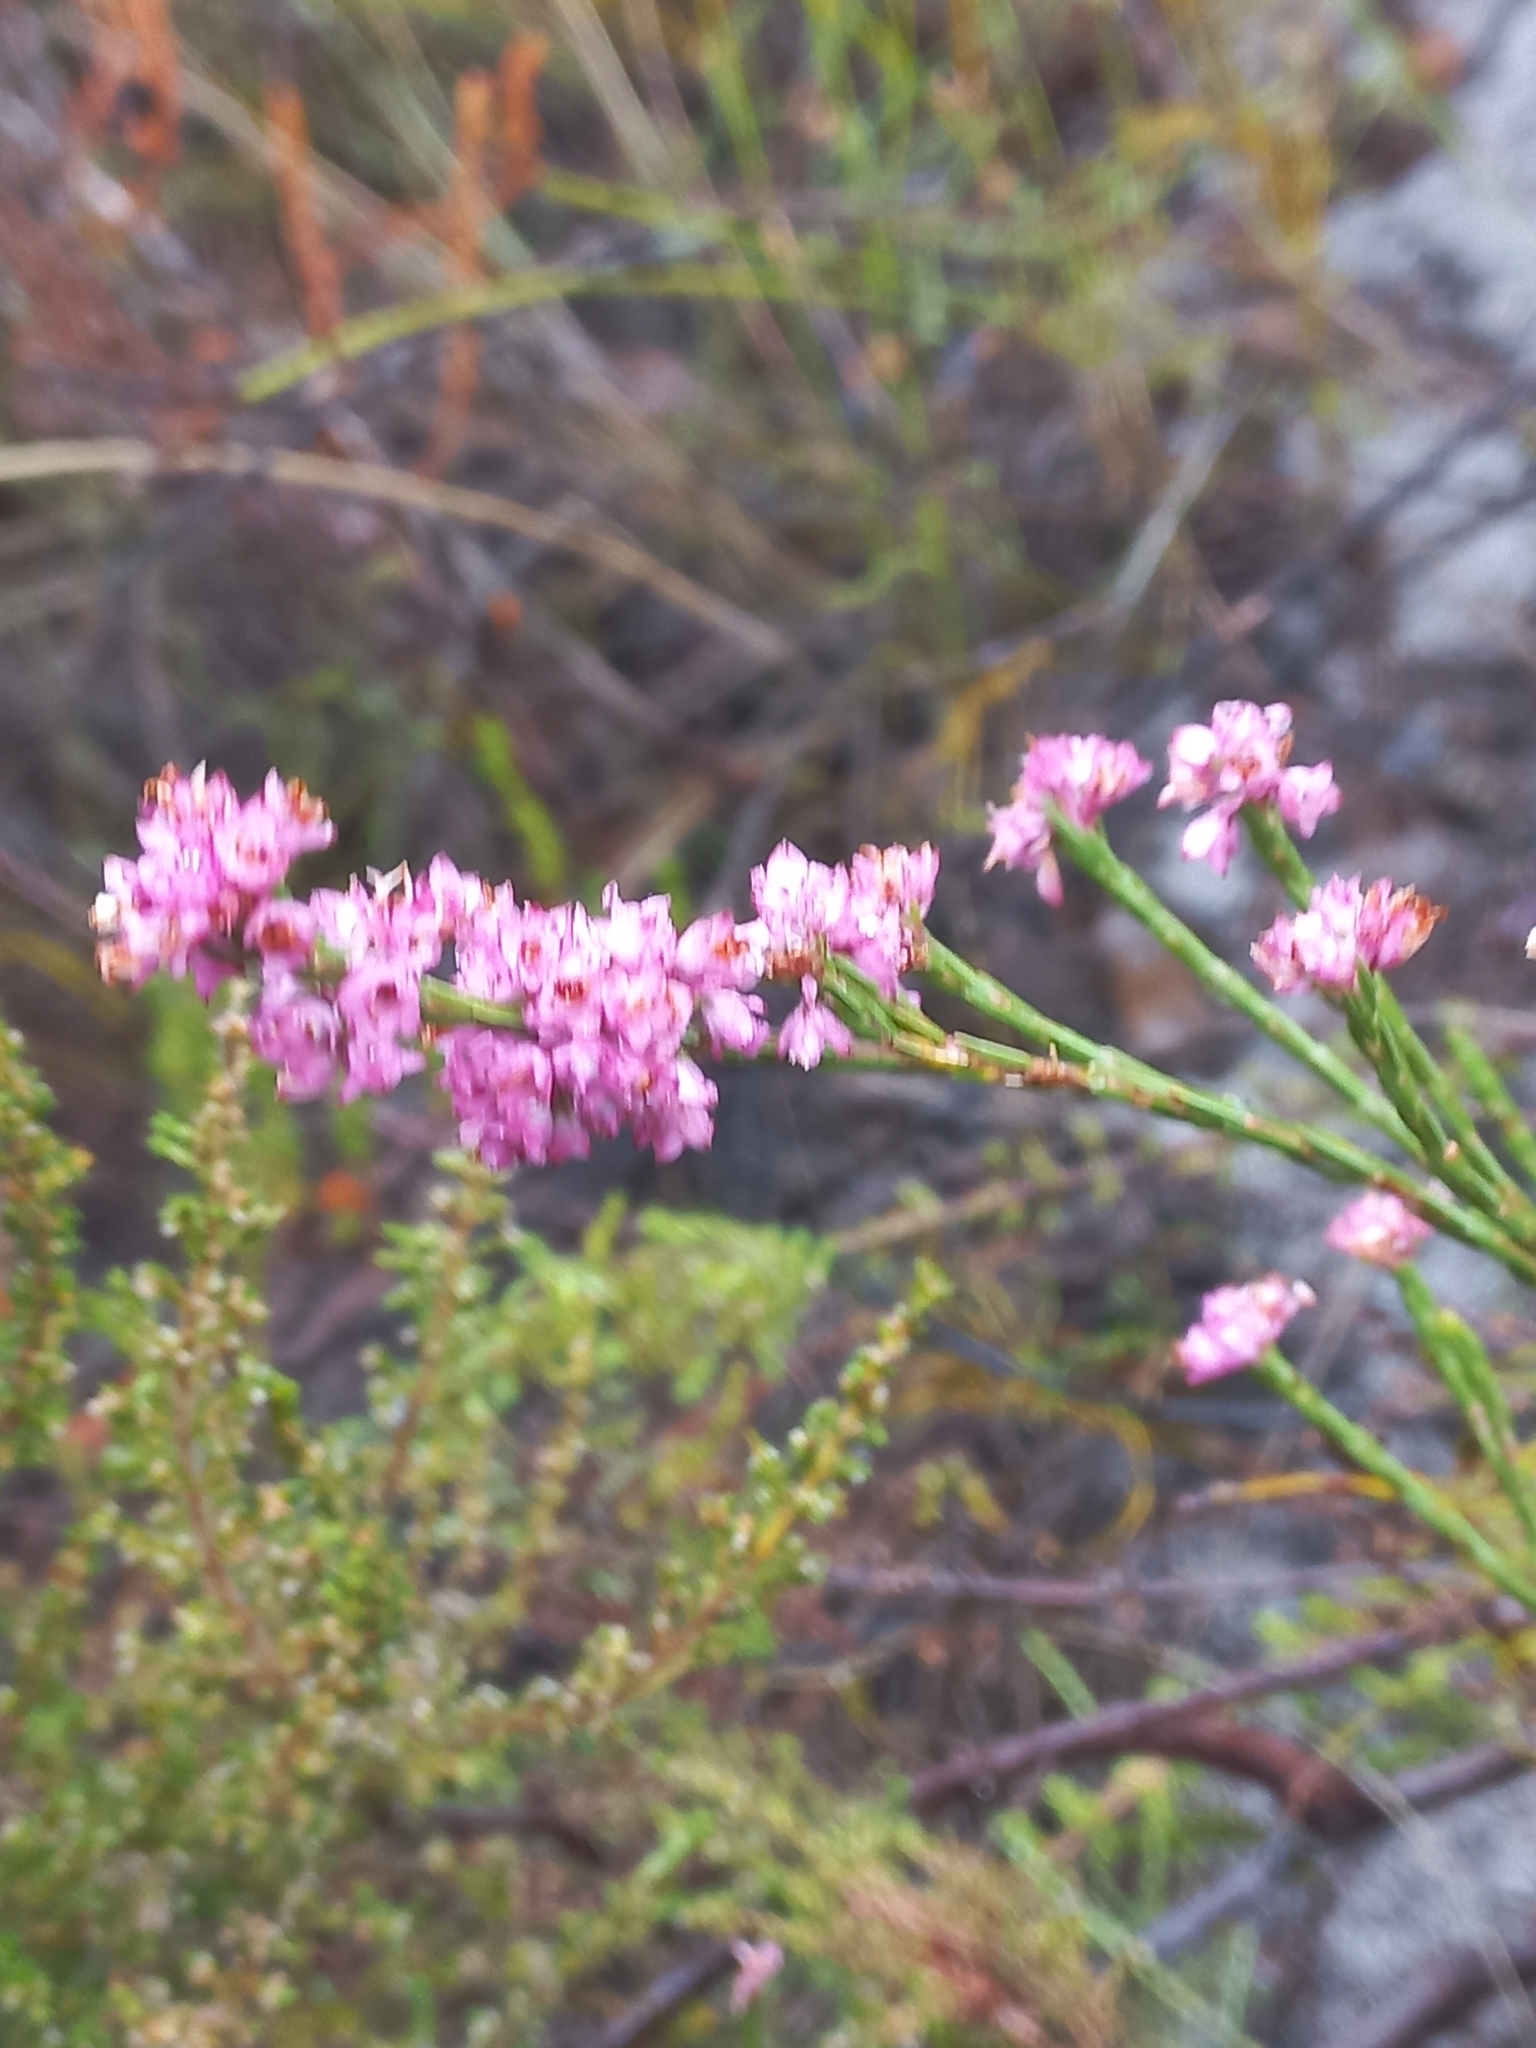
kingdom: Plantae
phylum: Tracheophyta
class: Magnoliopsida
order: Ericales
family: Ericaceae
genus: Erica
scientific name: Erica corifolia
